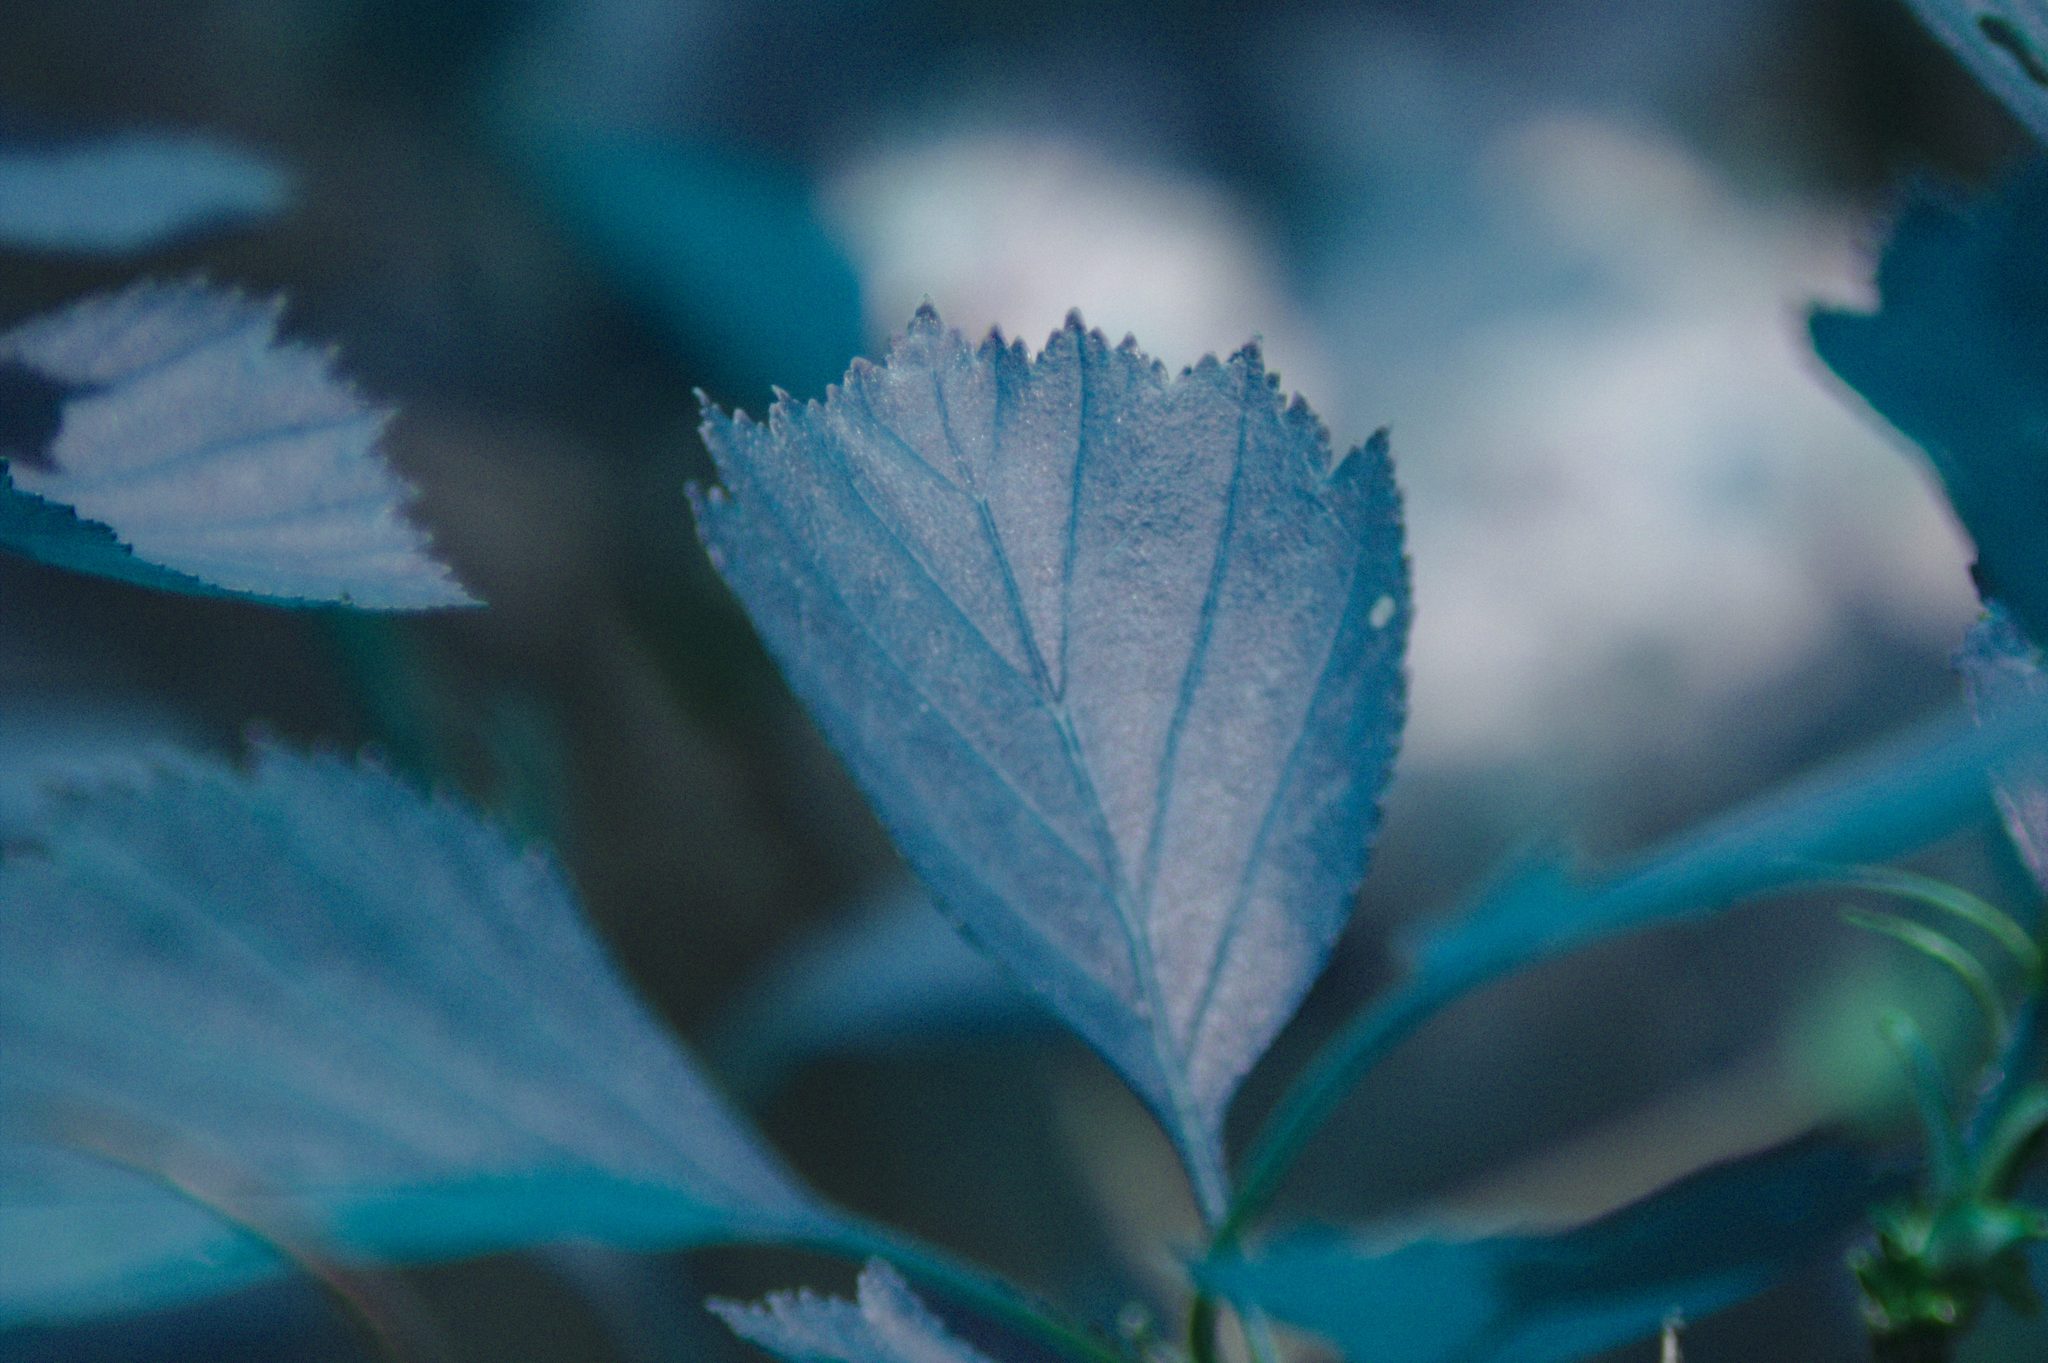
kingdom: Plantae
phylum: Tracheophyta
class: Magnoliopsida
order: Rosales
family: Rosaceae
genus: Crataegus
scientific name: Crataegus chrysocarpa
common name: Fire-berry hawthorn
